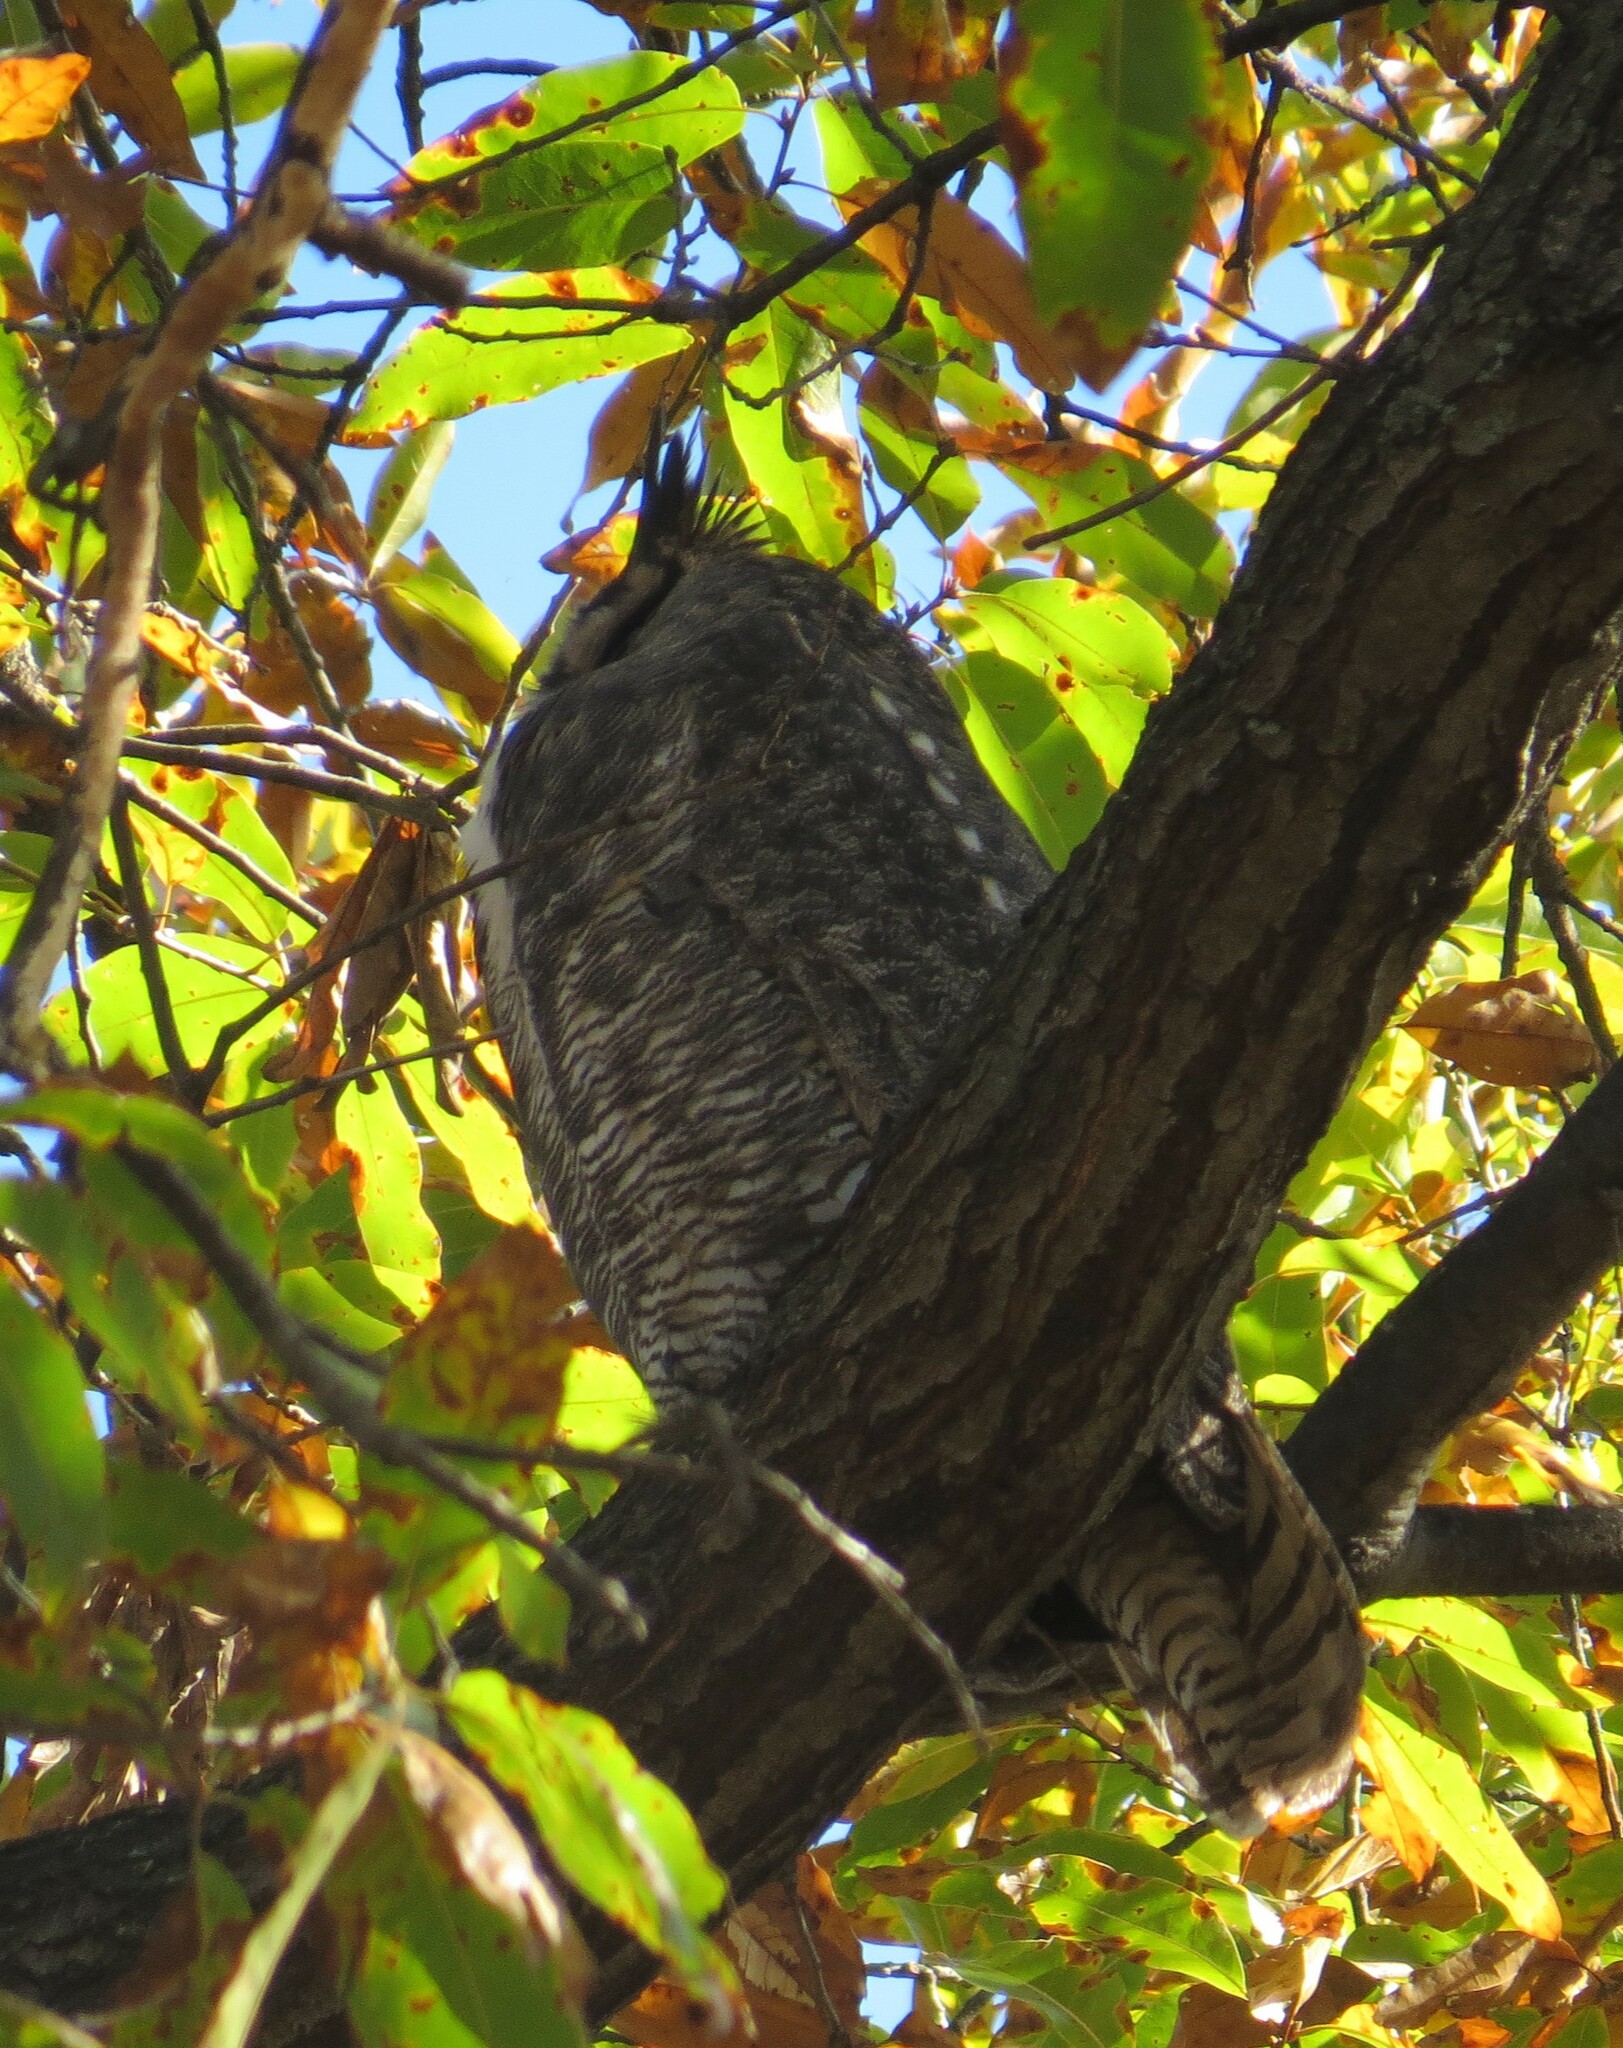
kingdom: Animalia
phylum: Chordata
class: Aves
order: Strigiformes
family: Strigidae
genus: Bubo
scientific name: Bubo virginianus
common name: Great horned owl
